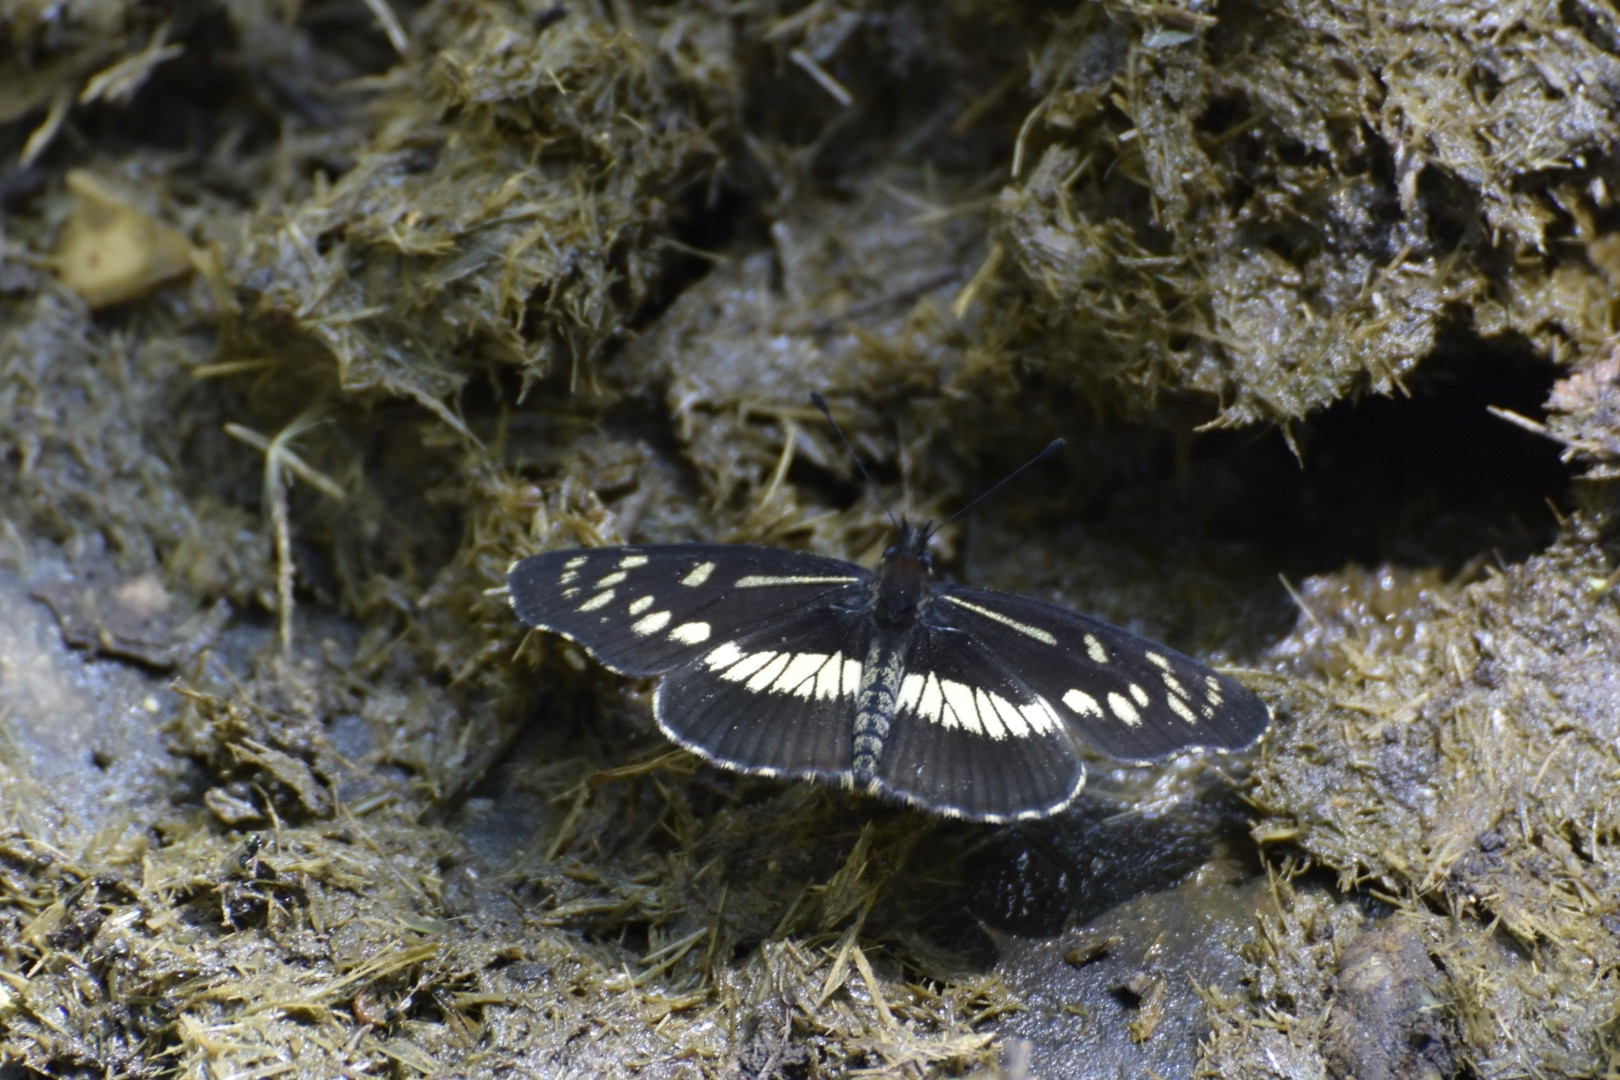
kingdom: Animalia
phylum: Arthropoda
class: Insecta
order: Lepidoptera
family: Nymphalidae
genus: Gnathotriche
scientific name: Gnathotriche exclamationis
